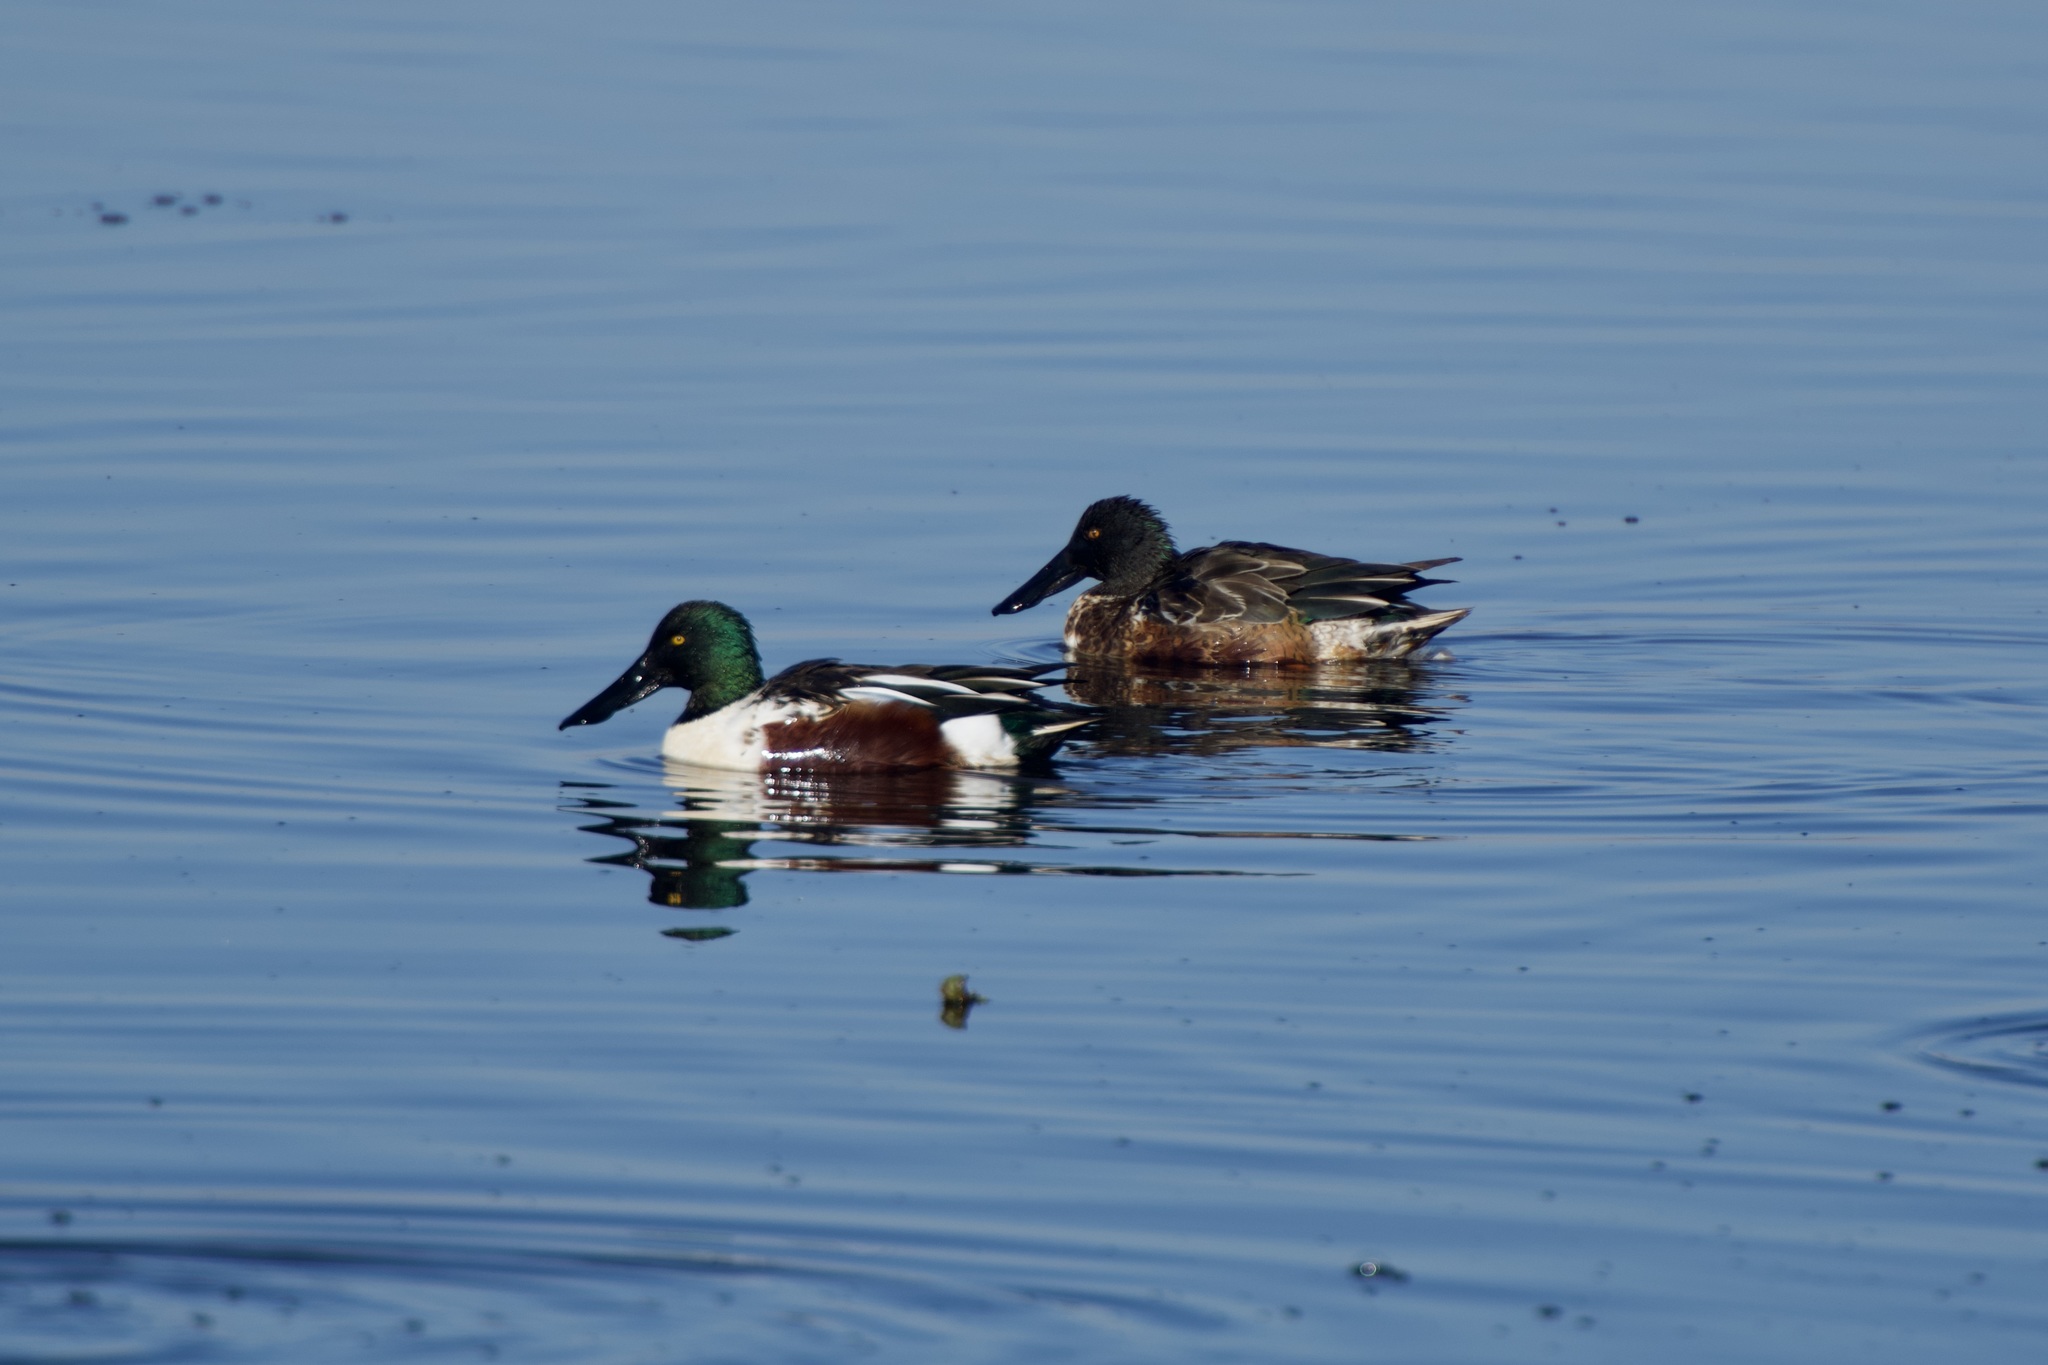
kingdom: Animalia
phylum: Chordata
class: Aves
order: Anseriformes
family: Anatidae
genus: Spatula
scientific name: Spatula clypeata
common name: Northern shoveler
